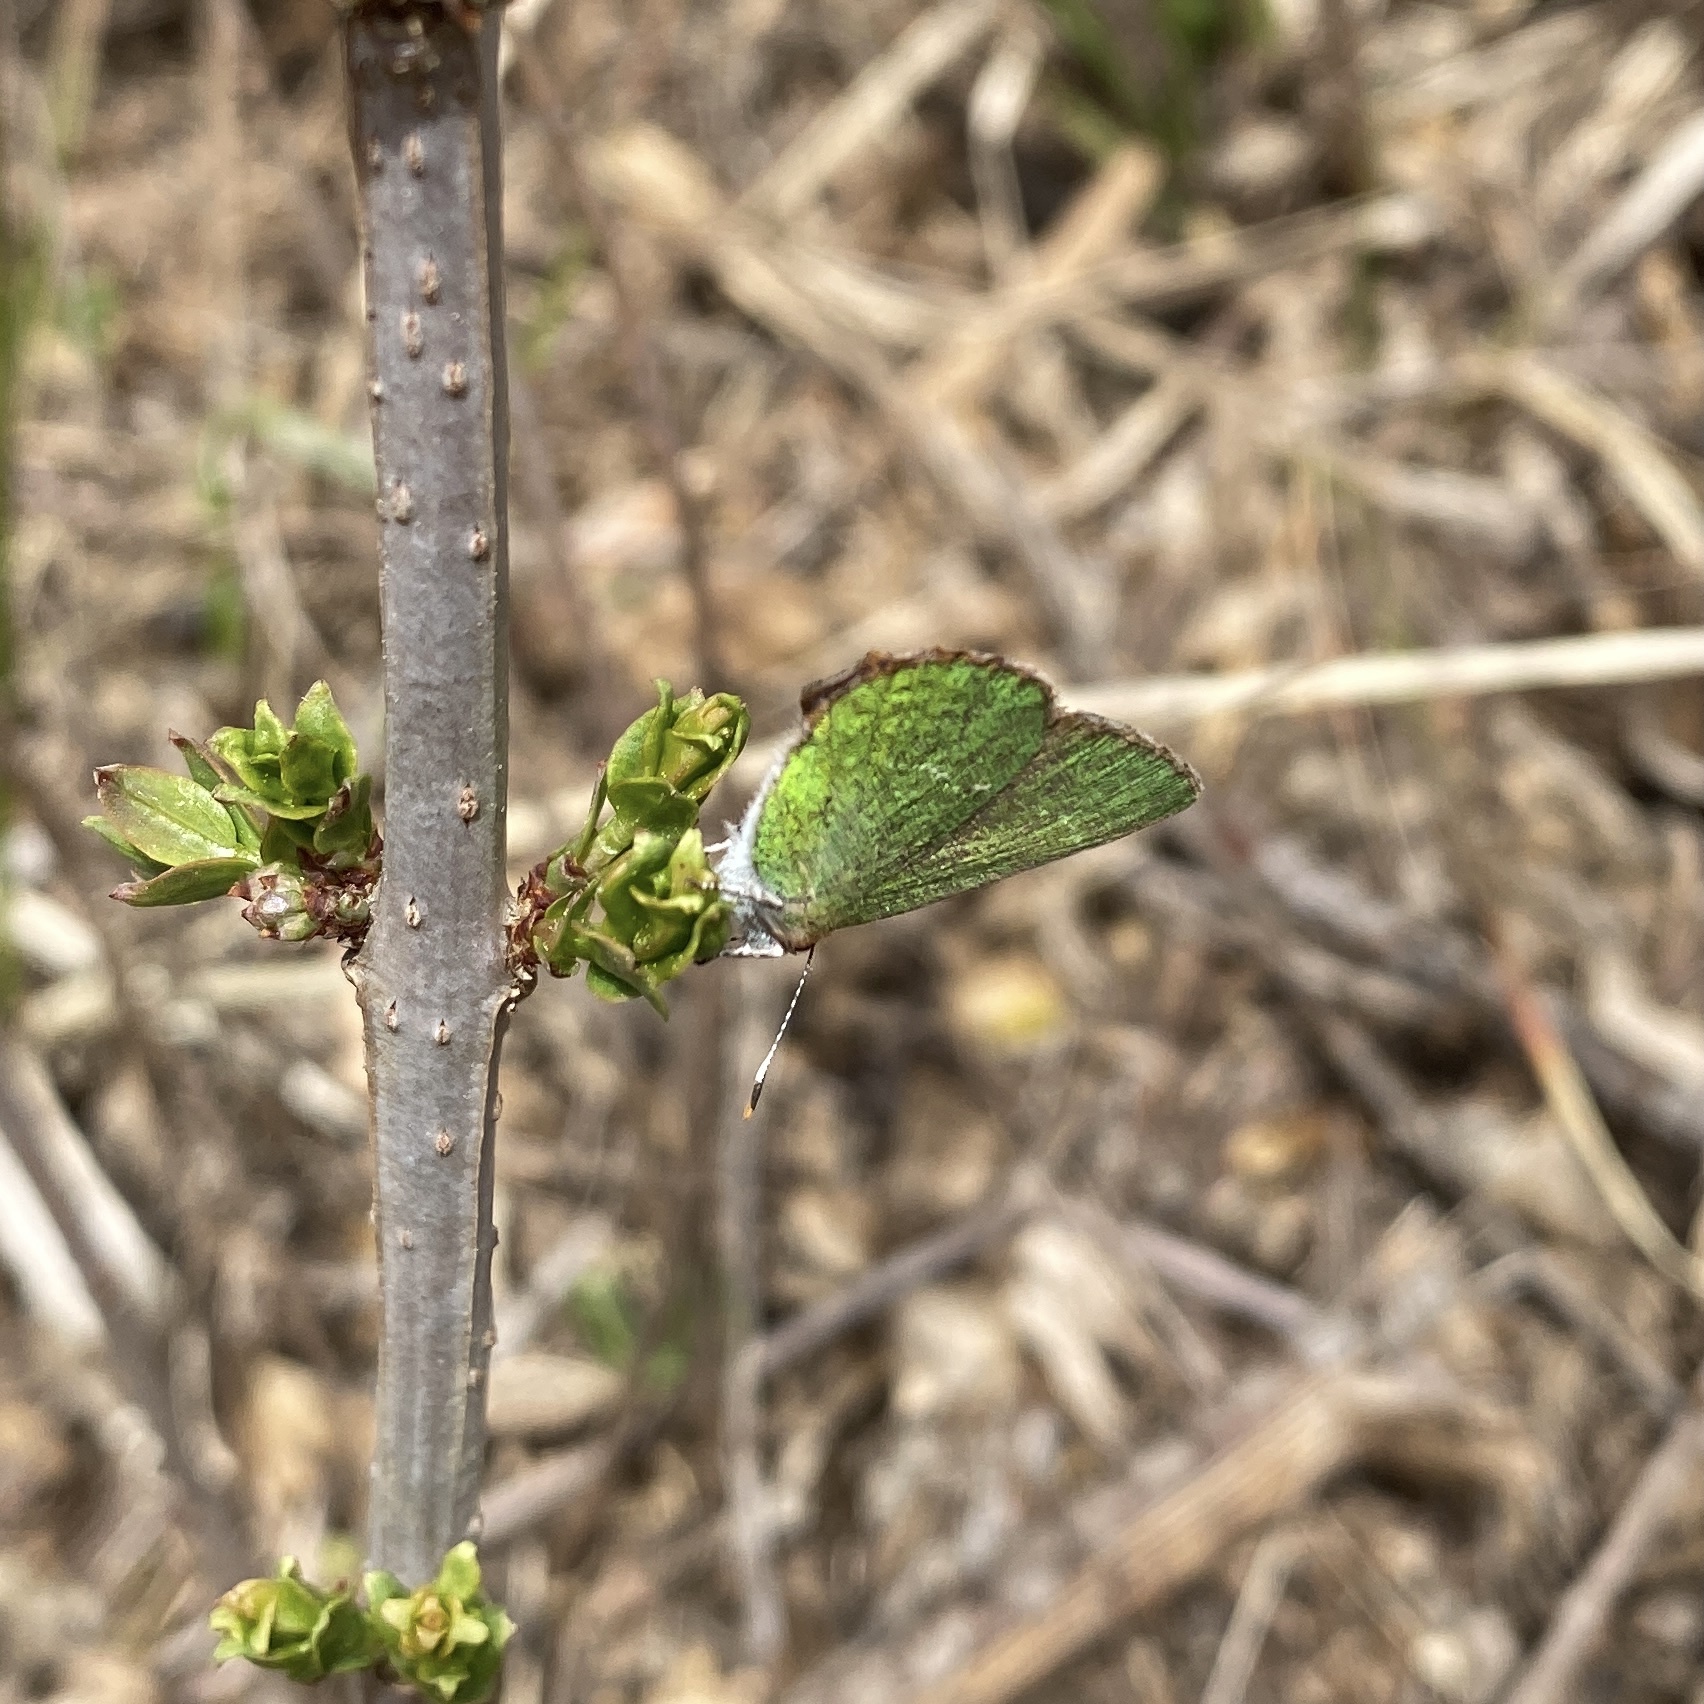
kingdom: Animalia
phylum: Arthropoda
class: Insecta
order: Lepidoptera
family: Lycaenidae
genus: Callophrys
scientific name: Callophrys rubi
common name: Green hairstreak
